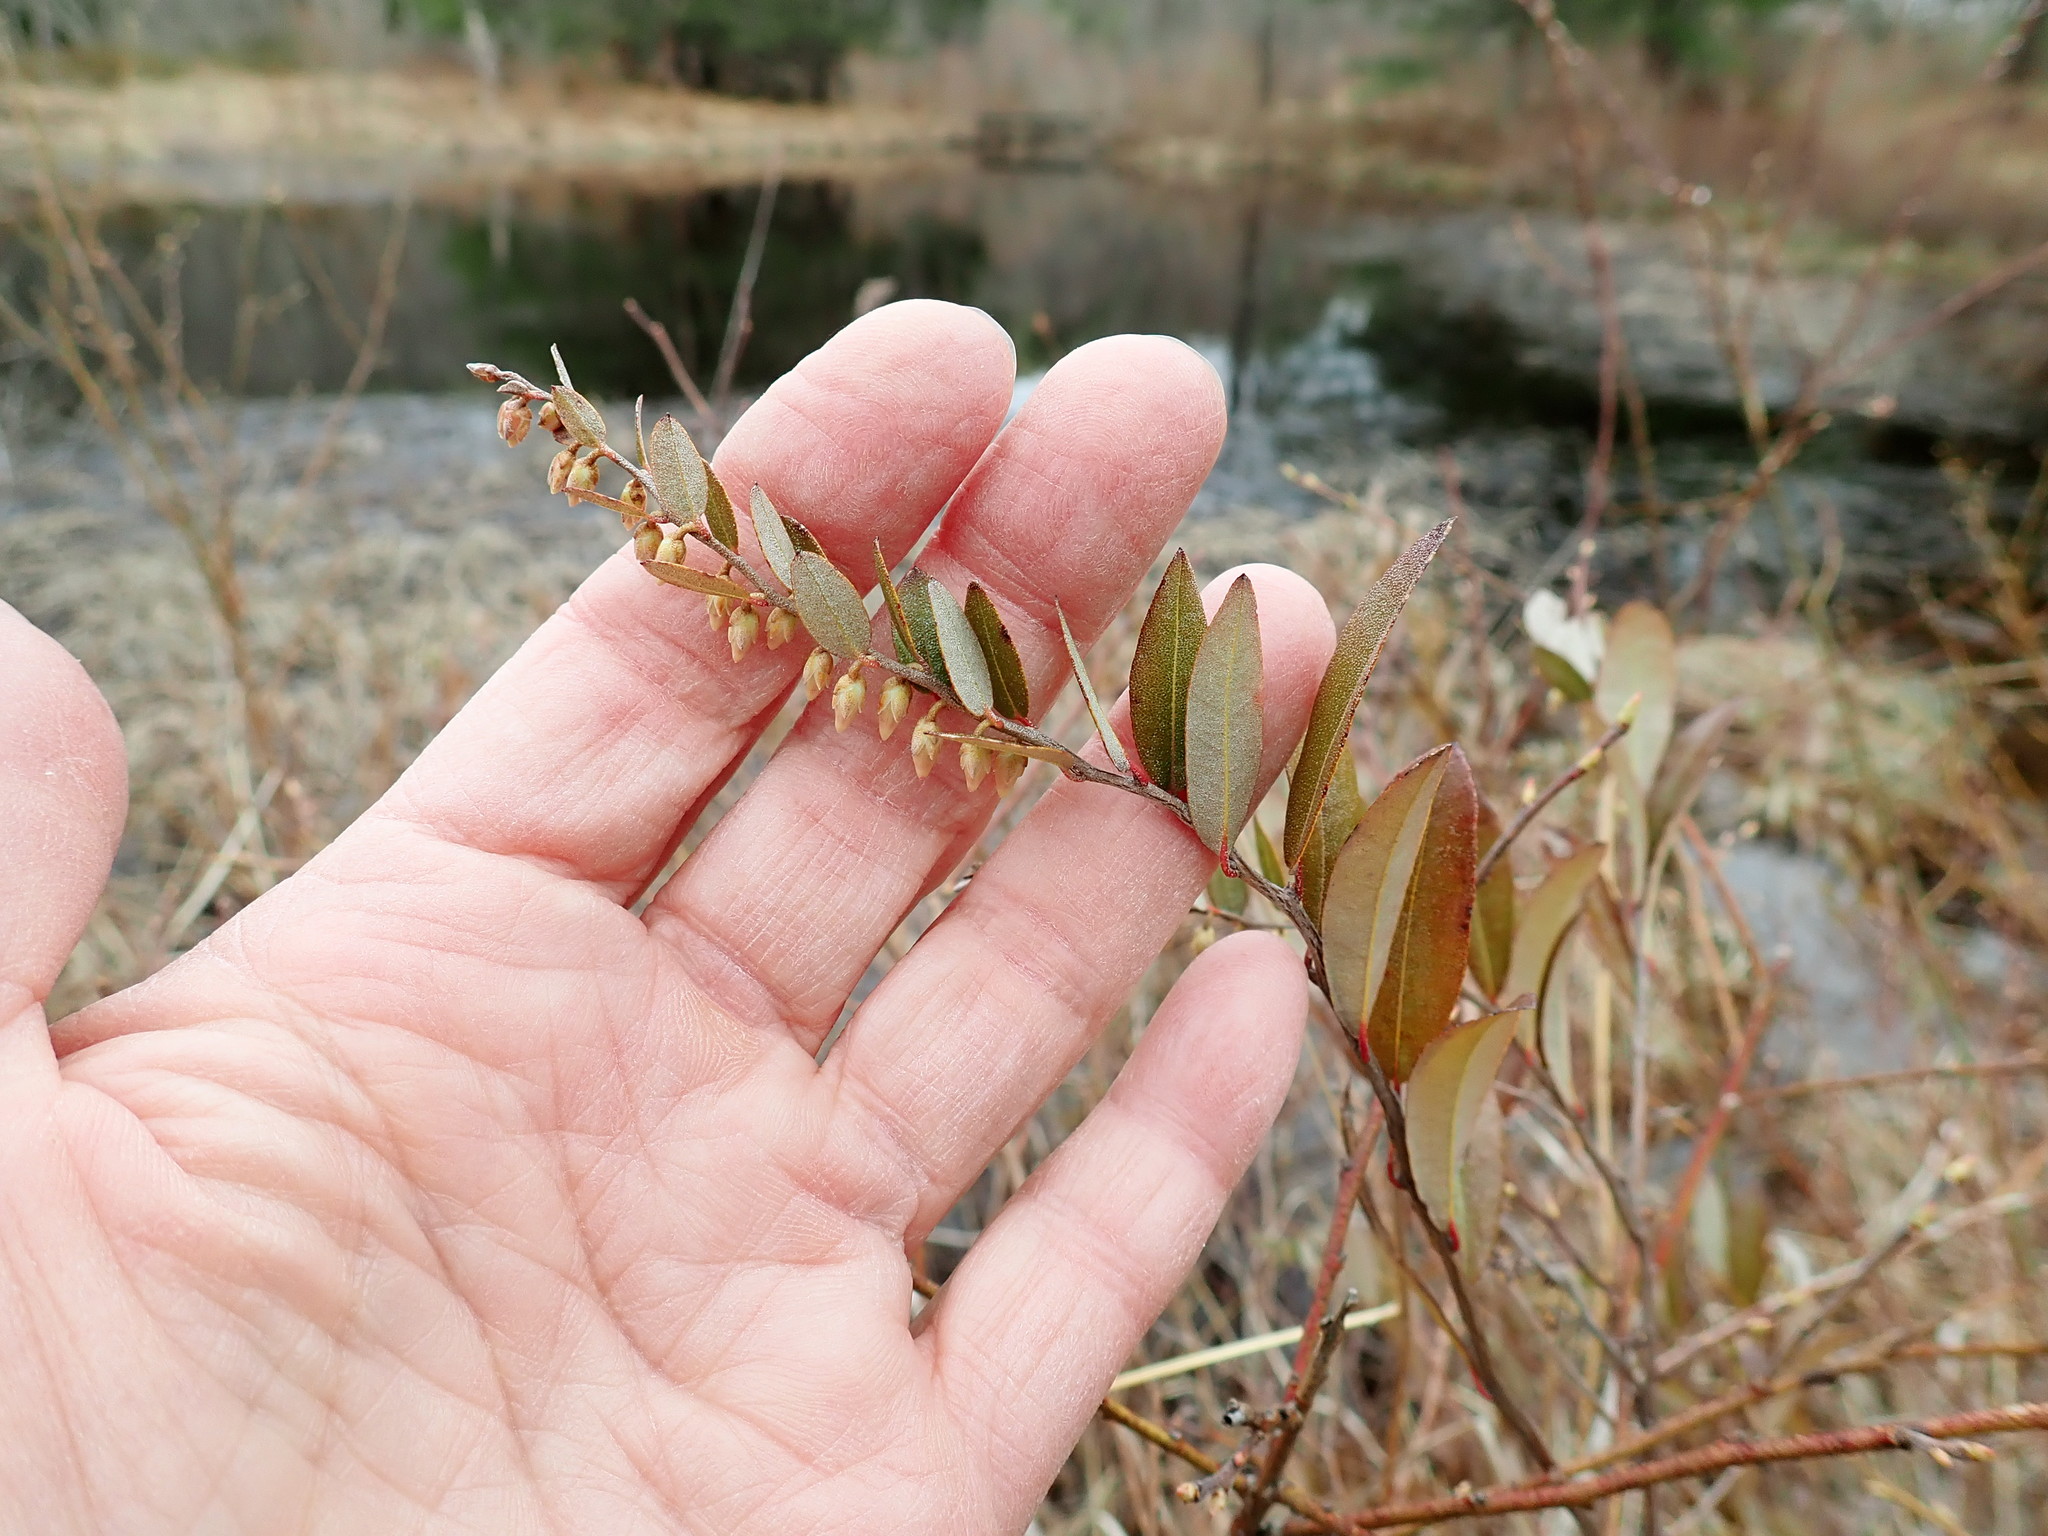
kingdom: Plantae
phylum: Tracheophyta
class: Magnoliopsida
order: Ericales
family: Ericaceae
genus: Chamaedaphne
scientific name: Chamaedaphne calyculata
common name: Leatherleaf
